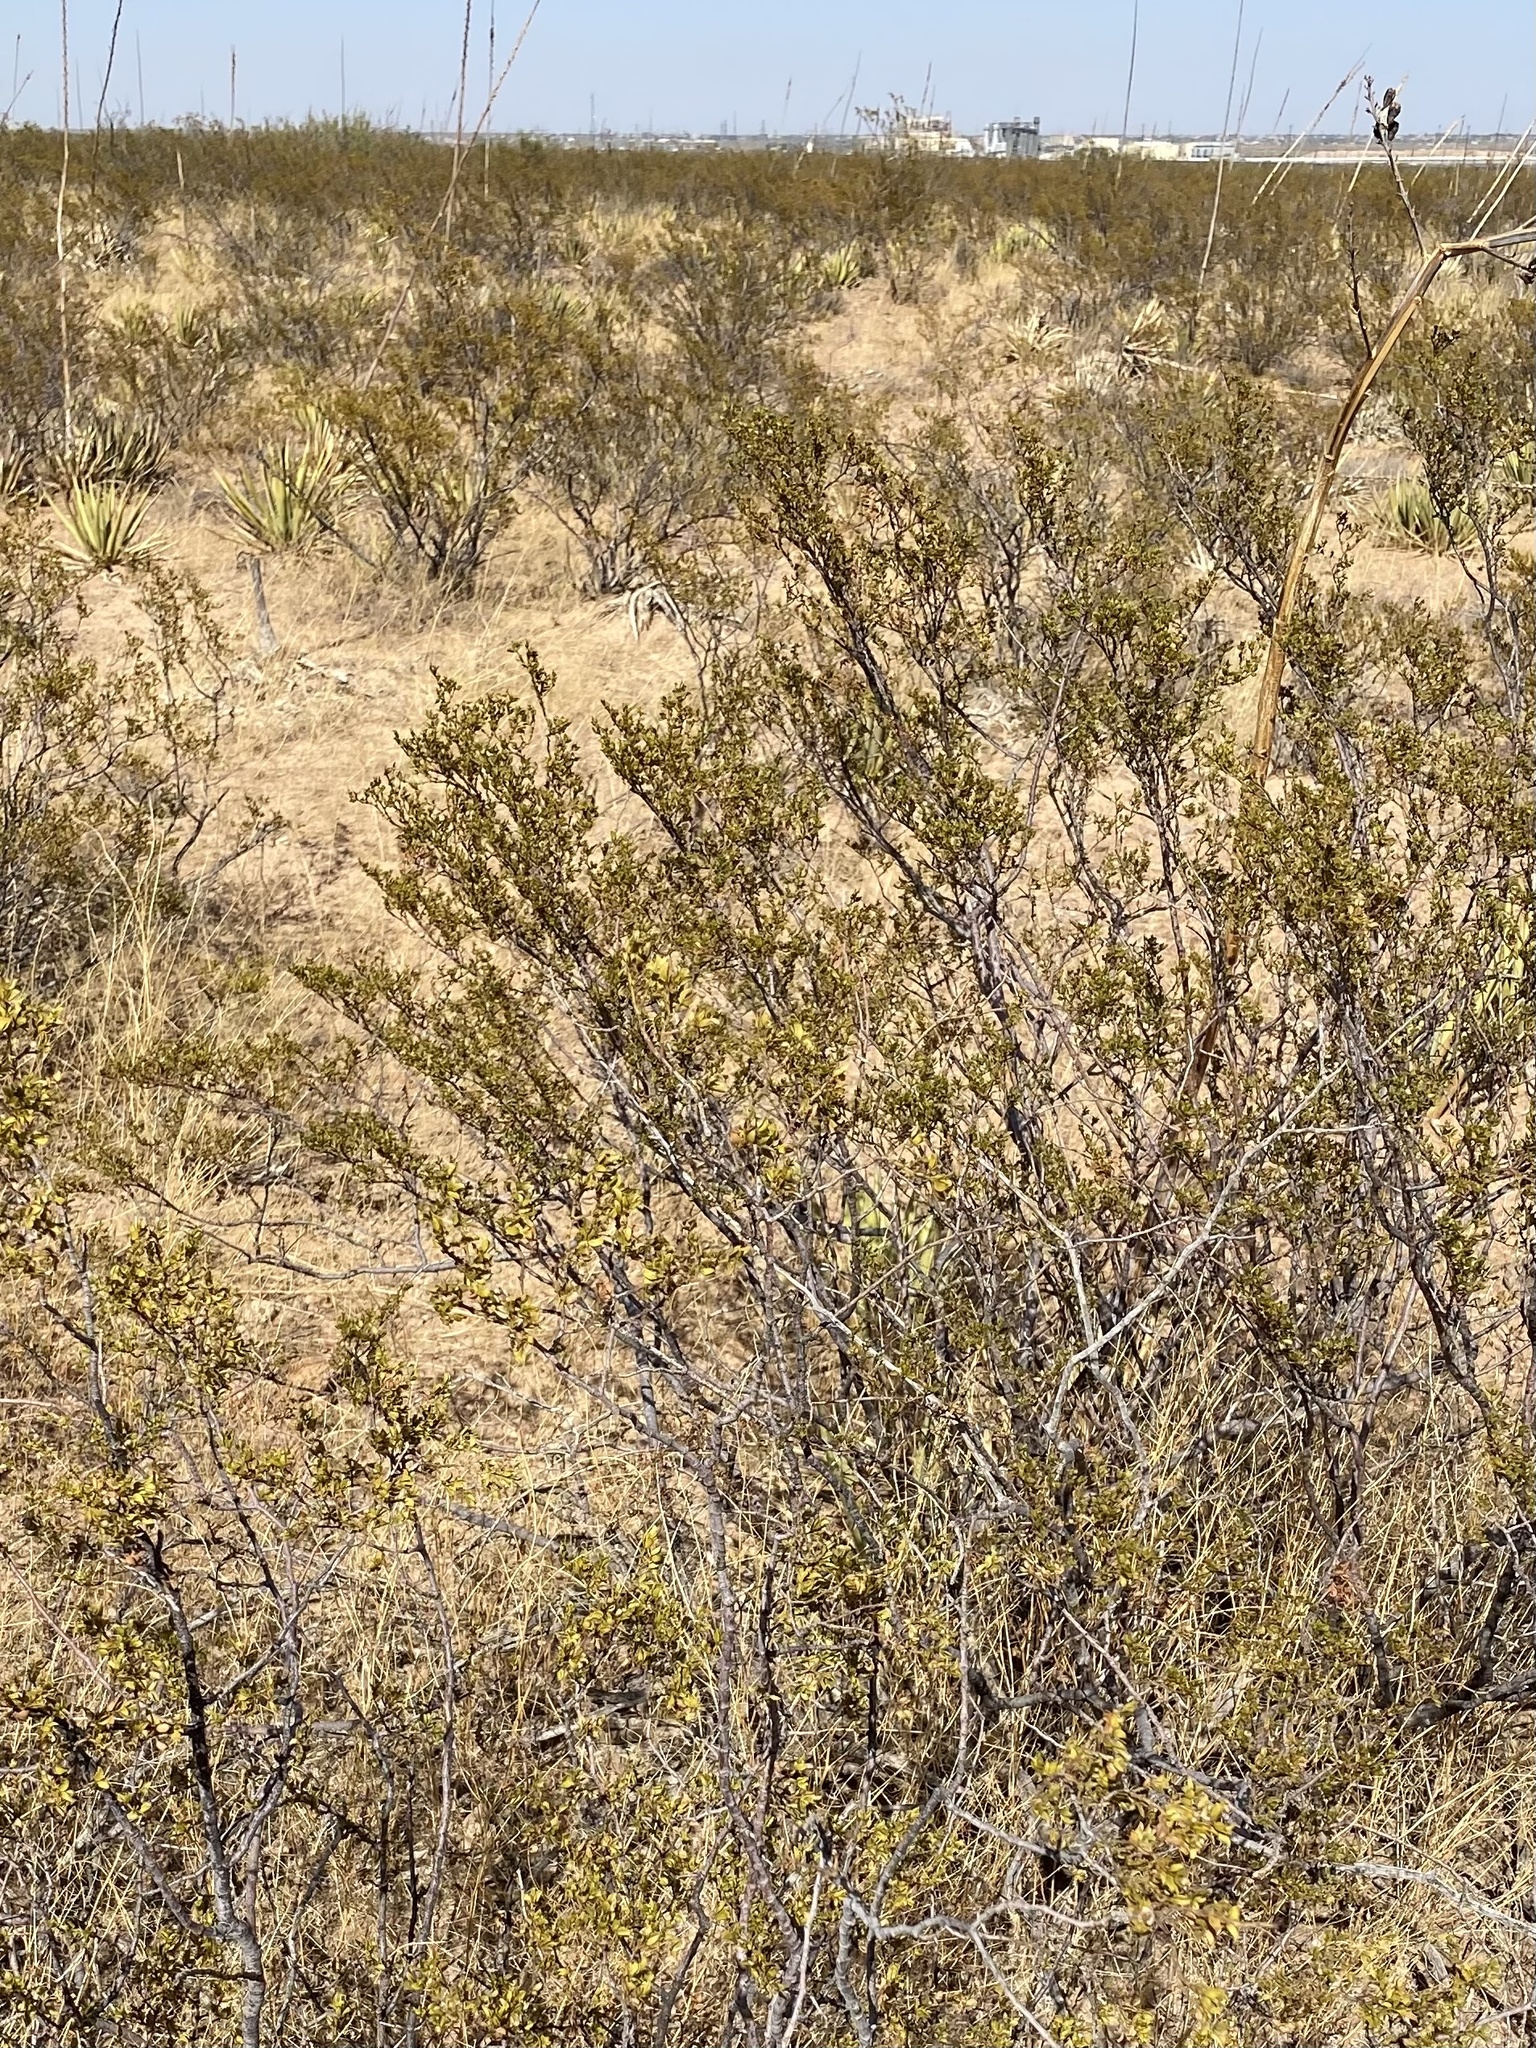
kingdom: Plantae
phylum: Tracheophyta
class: Magnoliopsida
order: Zygophyllales
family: Zygophyllaceae
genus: Larrea
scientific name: Larrea tridentata
